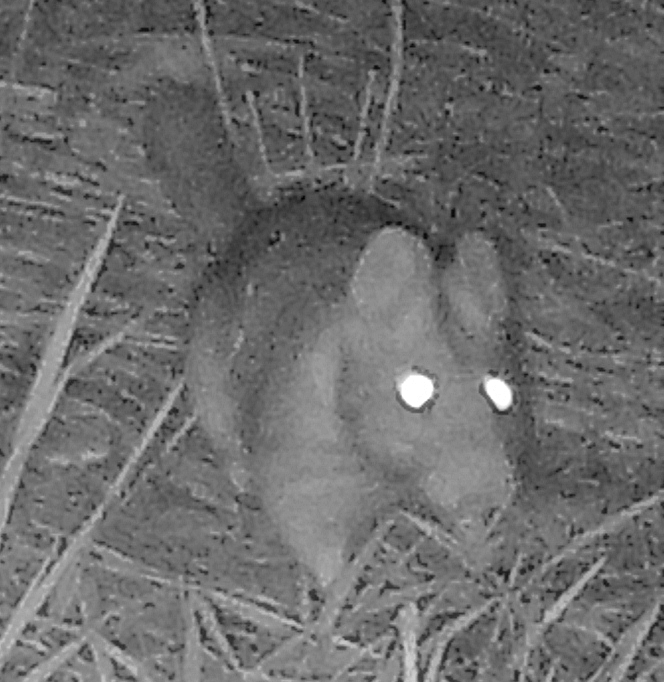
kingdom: Animalia
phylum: Chordata
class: Mammalia
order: Rodentia
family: Cricetidae
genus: Neotoma
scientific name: Neotoma cinerea
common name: Bushy-tailed woodrat
